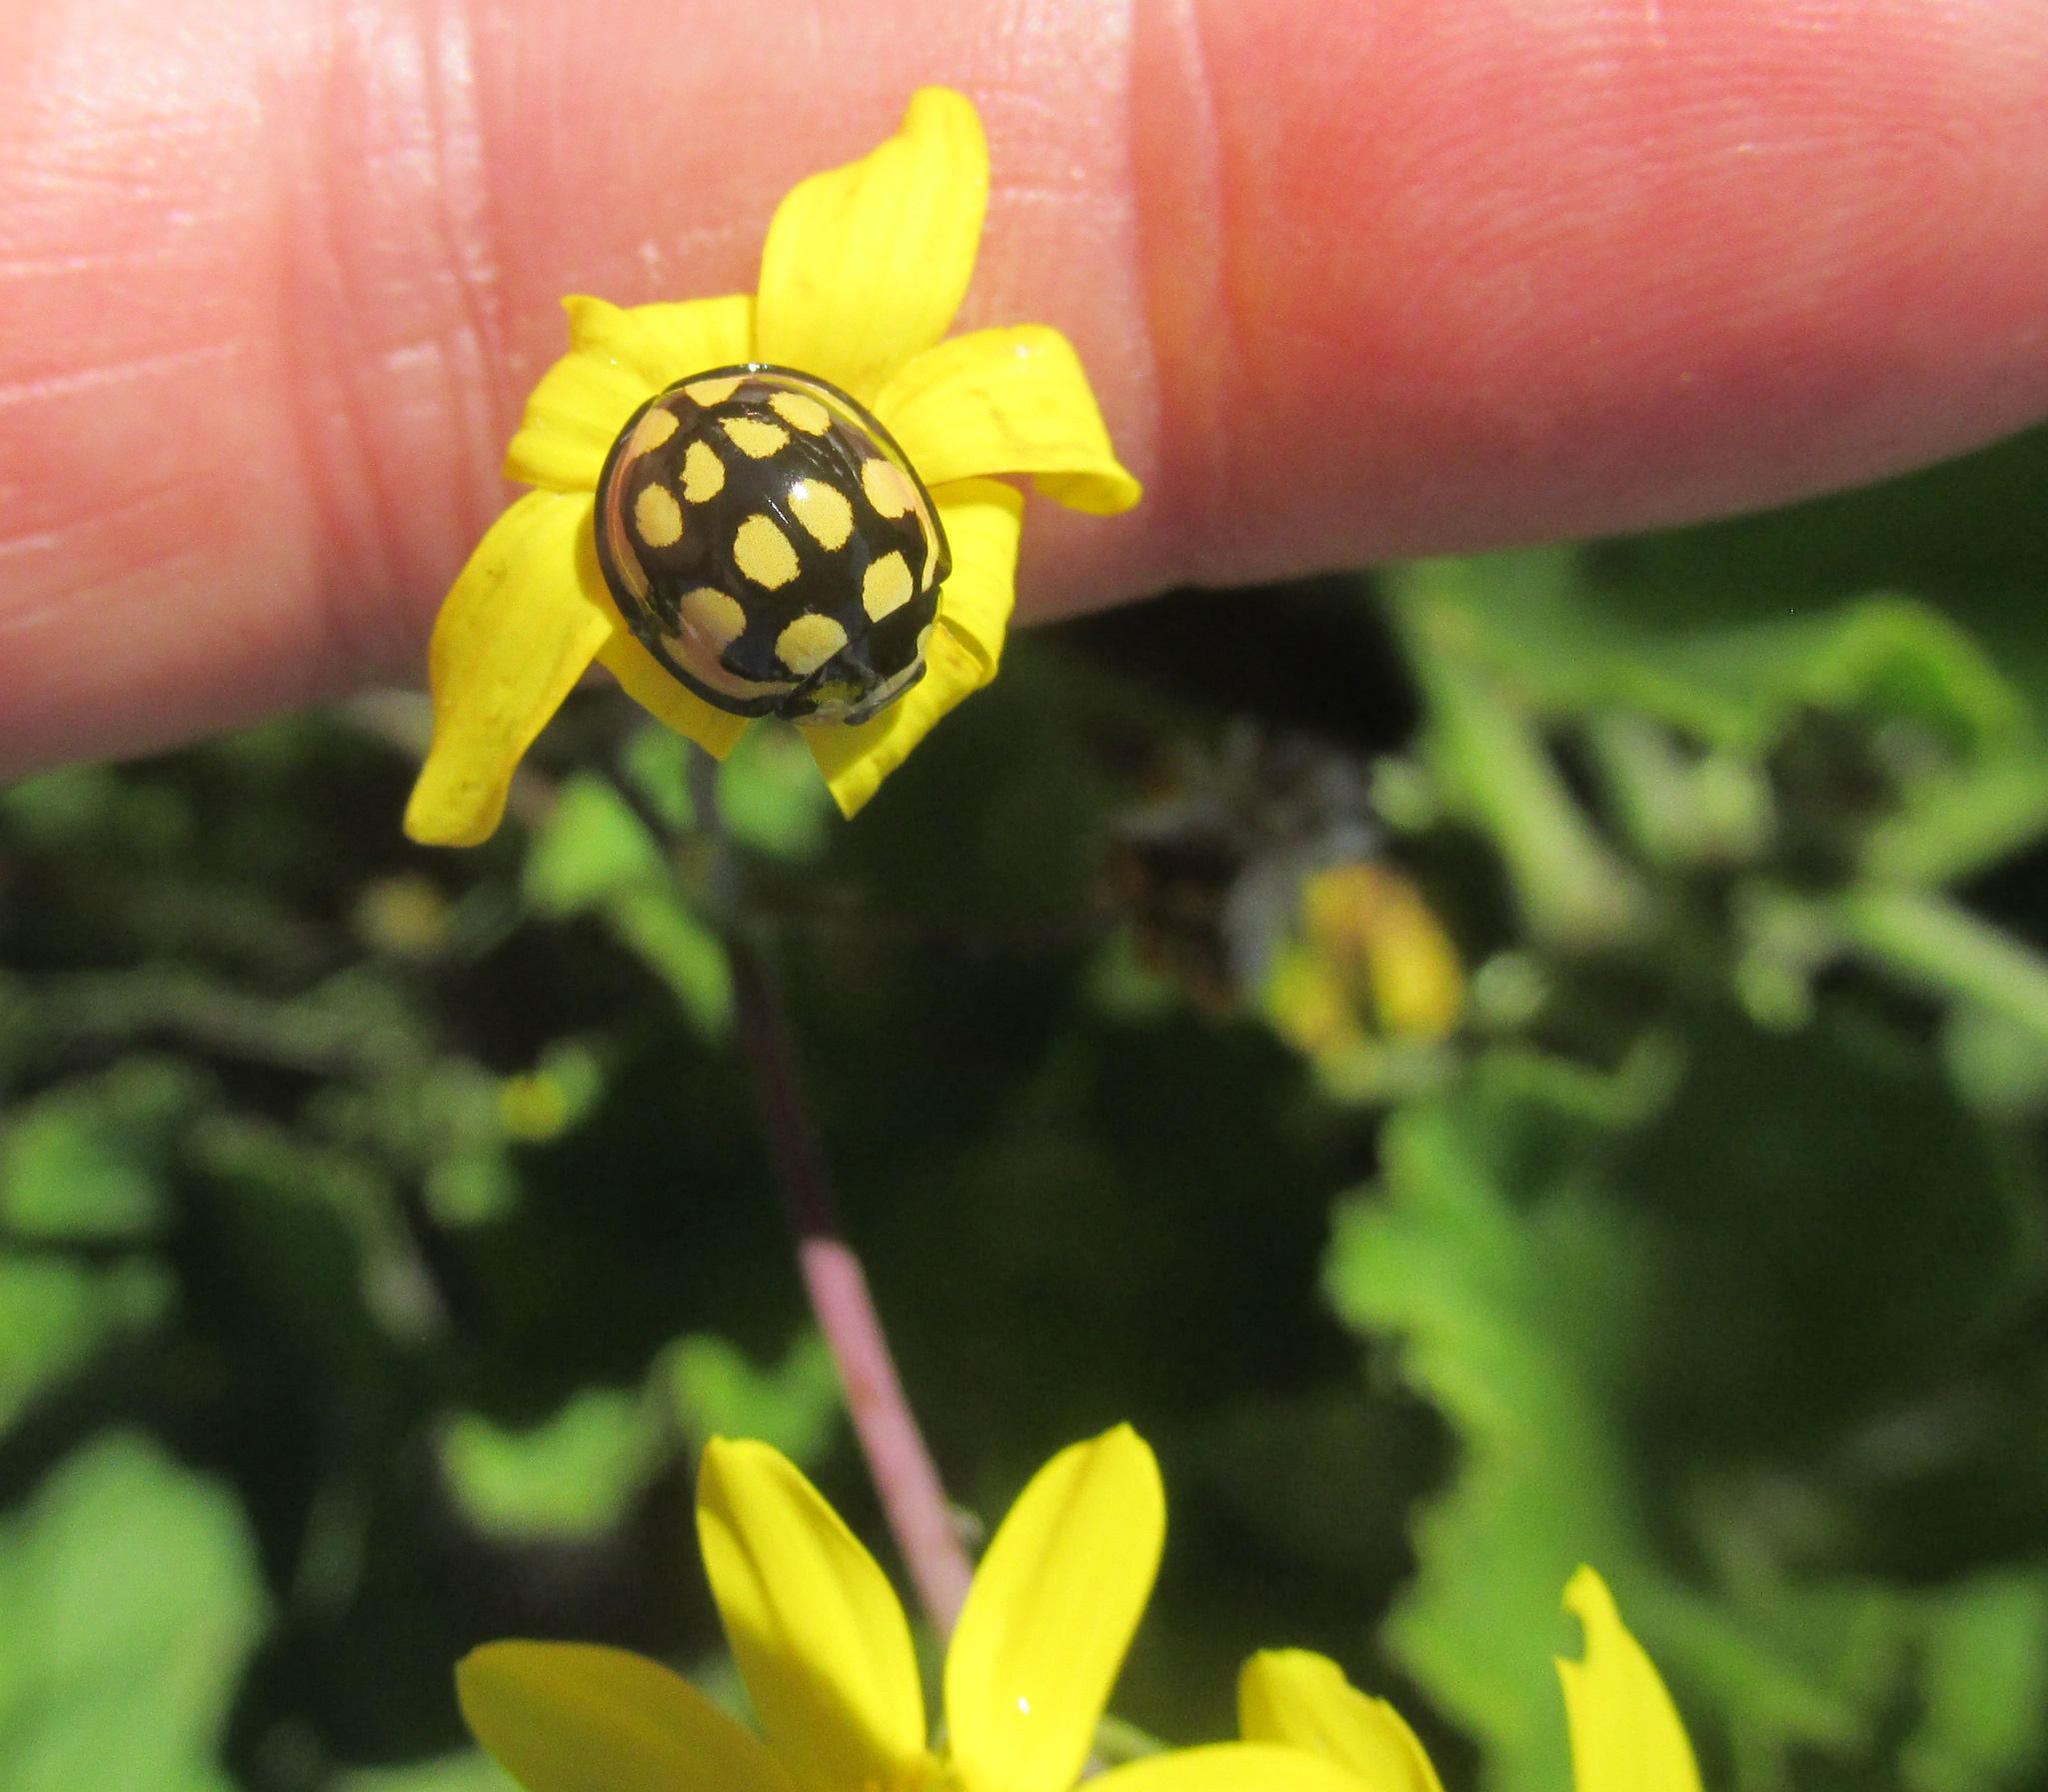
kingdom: Animalia
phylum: Arthropoda
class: Insecta
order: Coleoptera
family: Coccinellidae
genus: Cheilomenes
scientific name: Cheilomenes sulphurea
